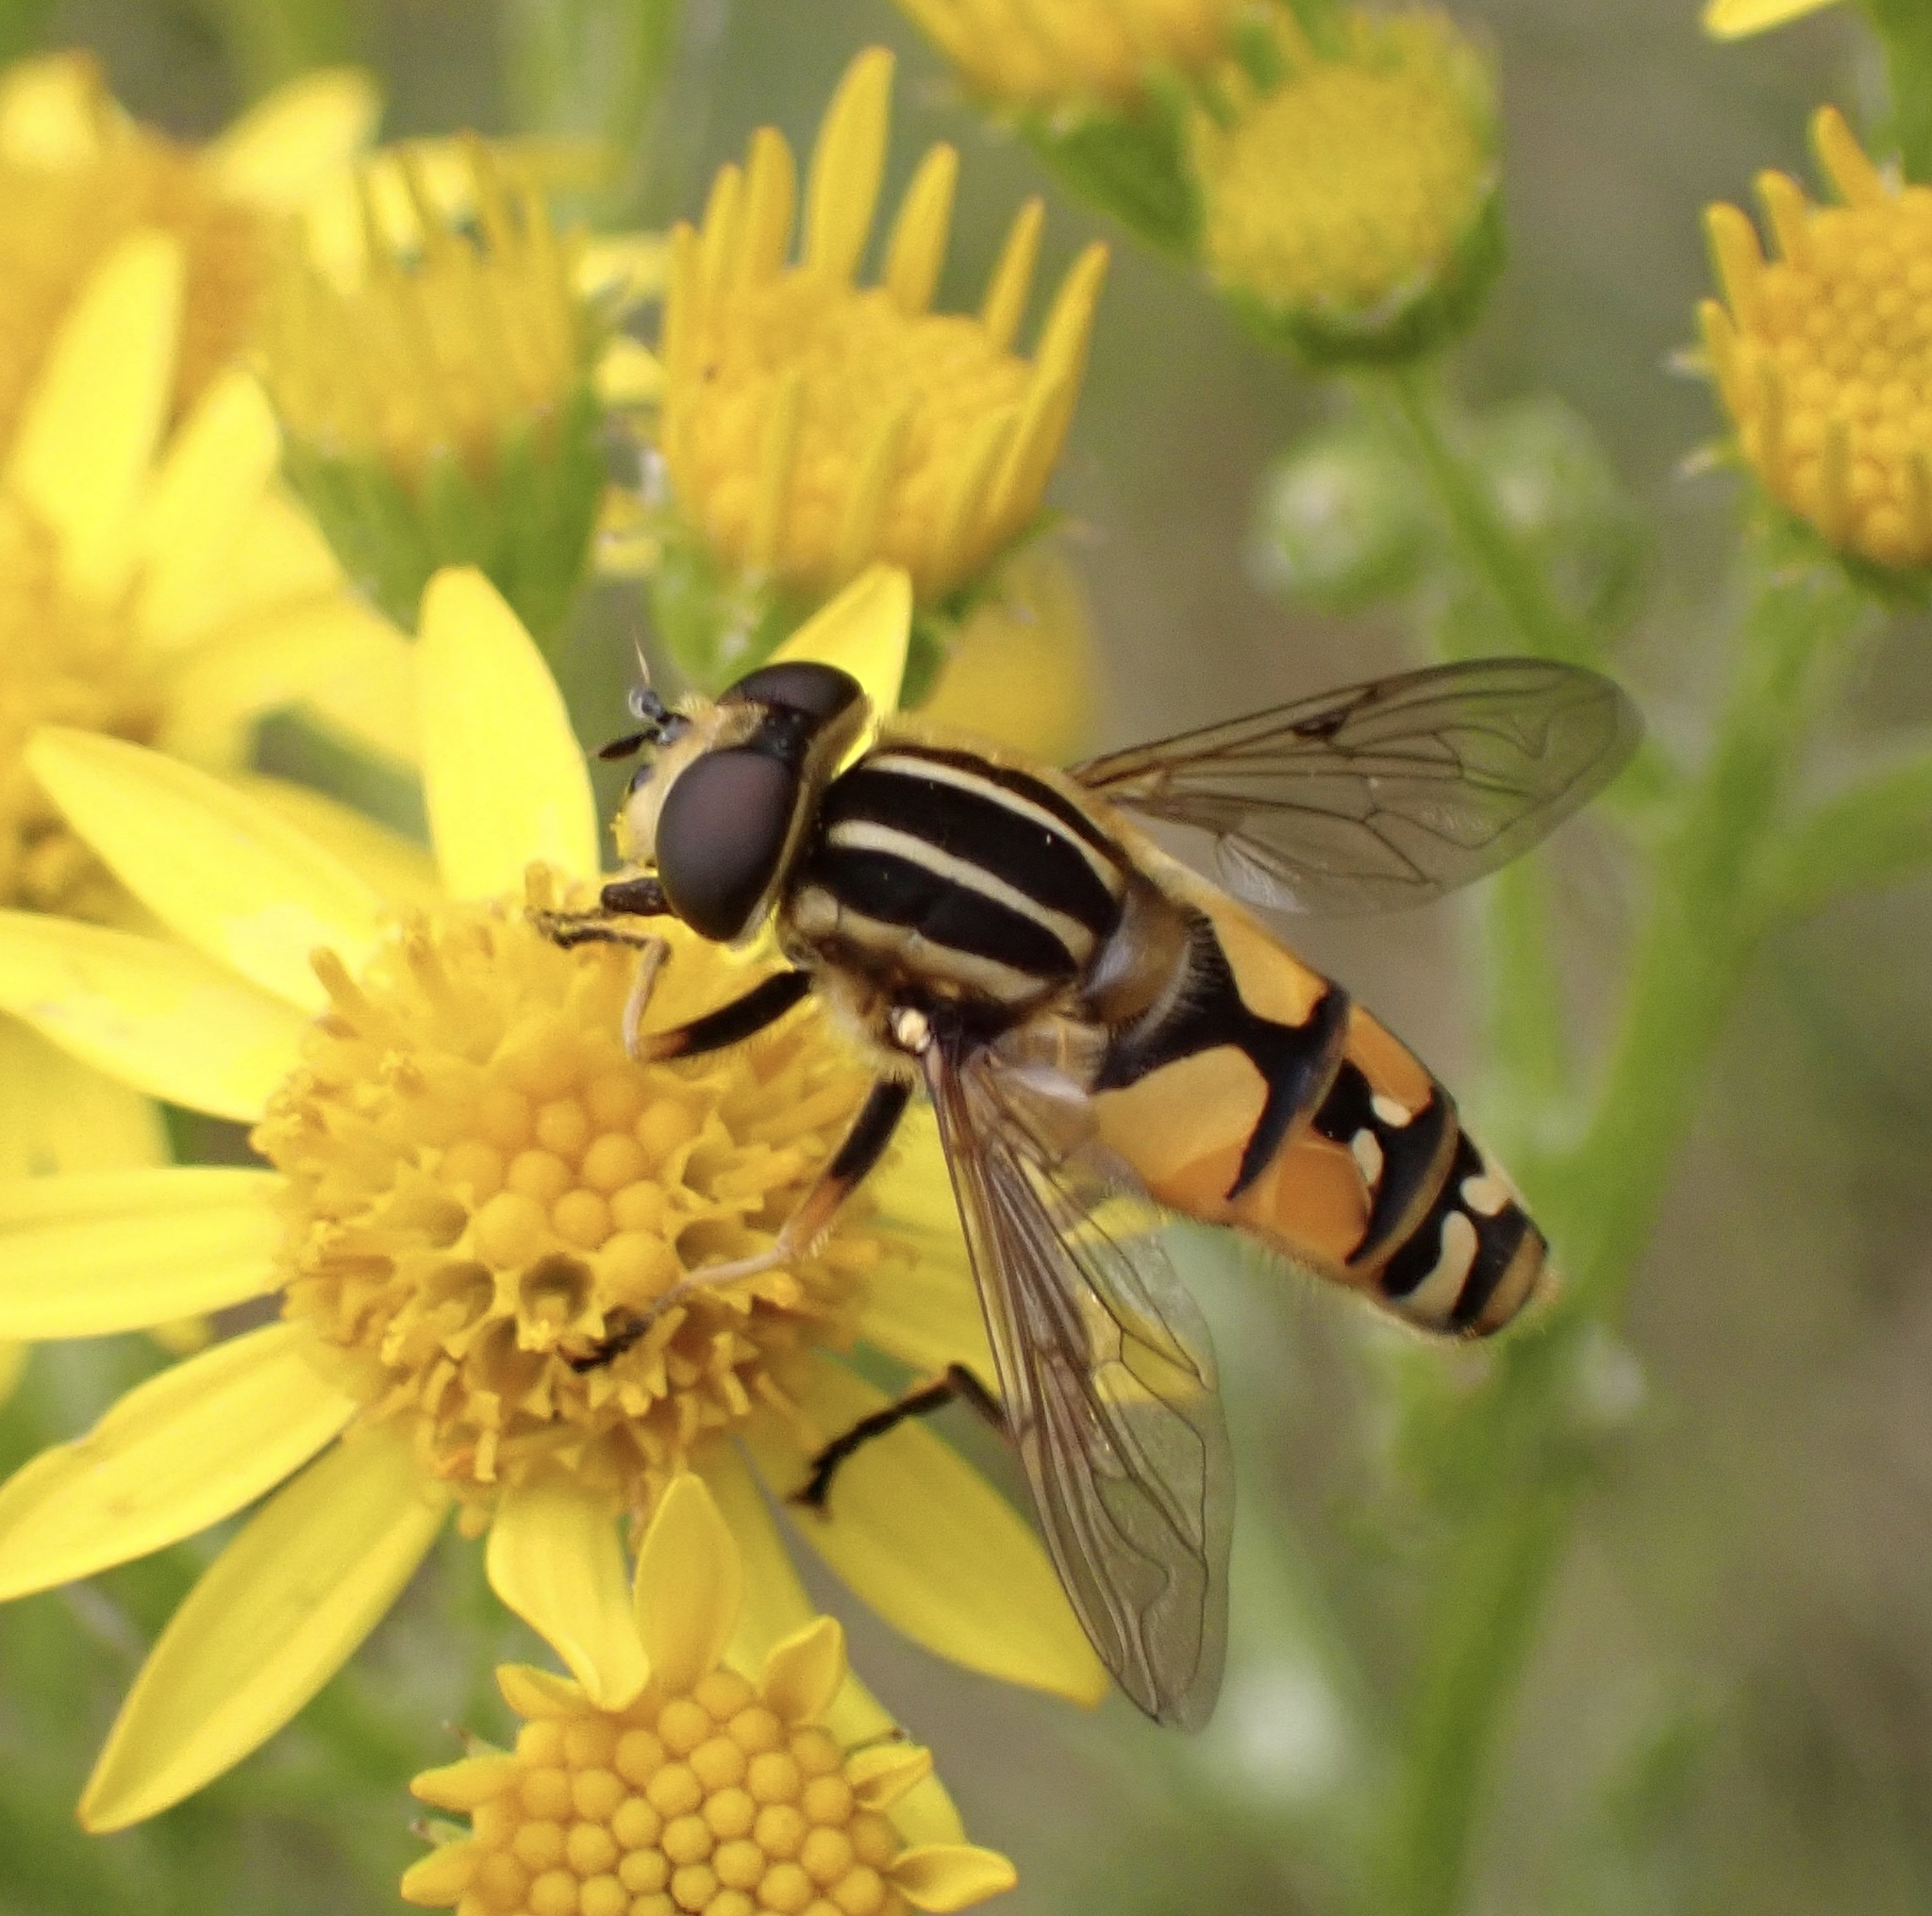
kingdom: Animalia
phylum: Arthropoda
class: Insecta
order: Diptera
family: Syrphidae
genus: Helophilus
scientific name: Helophilus pendulus
